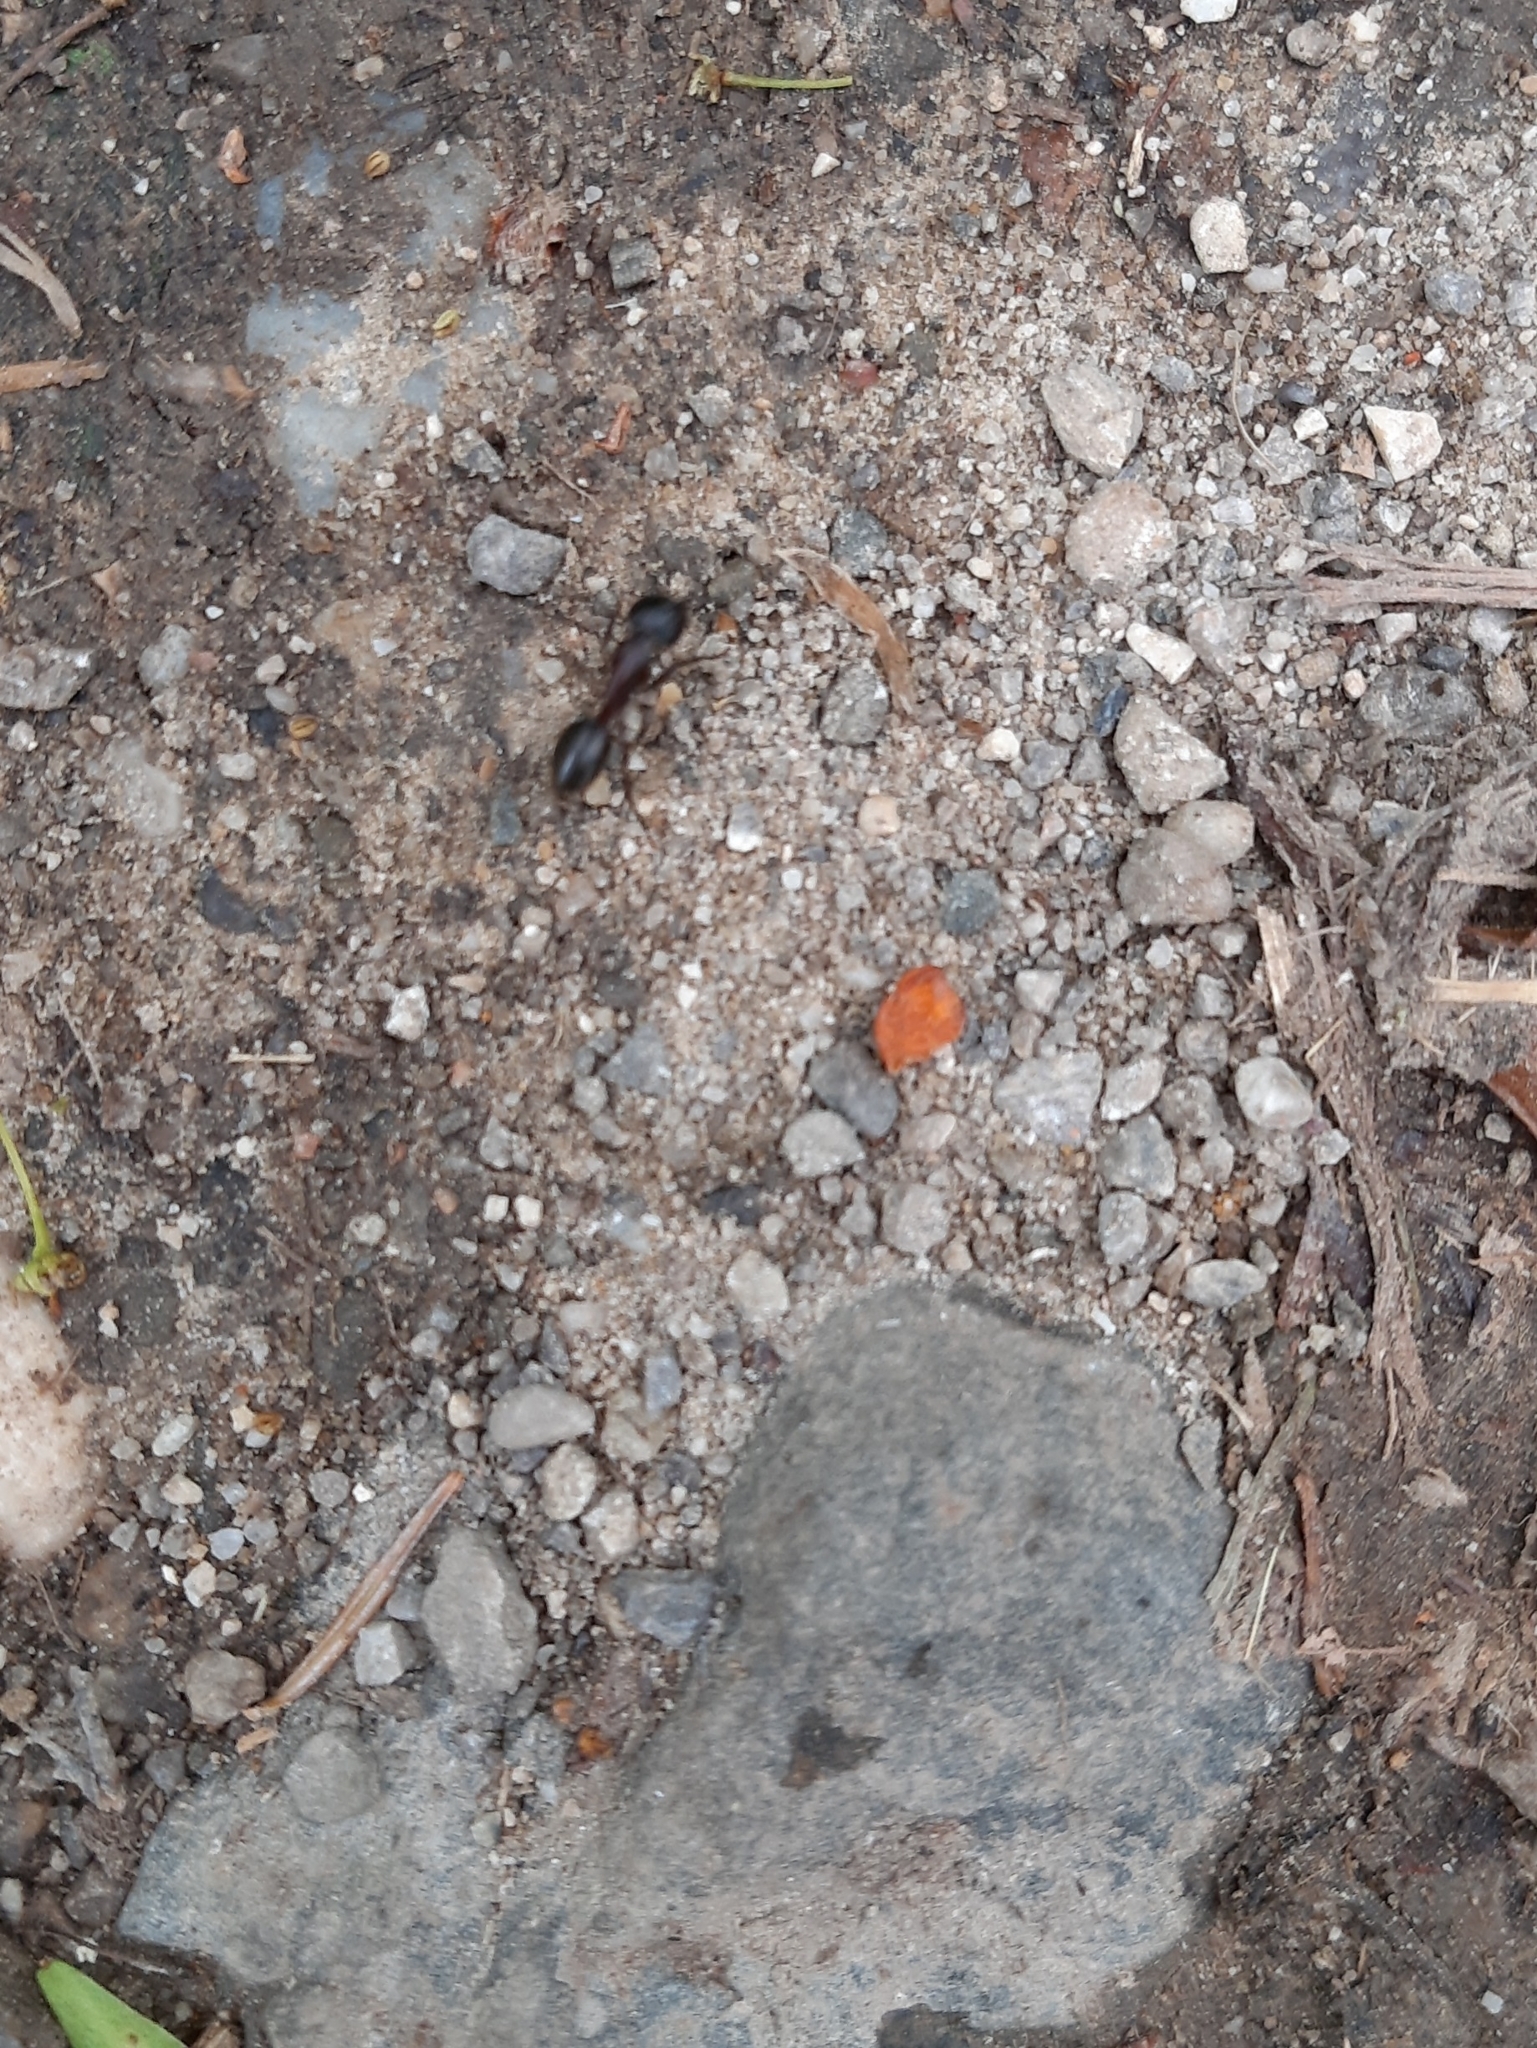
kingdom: Animalia
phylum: Arthropoda
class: Insecta
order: Hymenoptera
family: Formicidae
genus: Camponotus
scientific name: Camponotus ligniperdus
